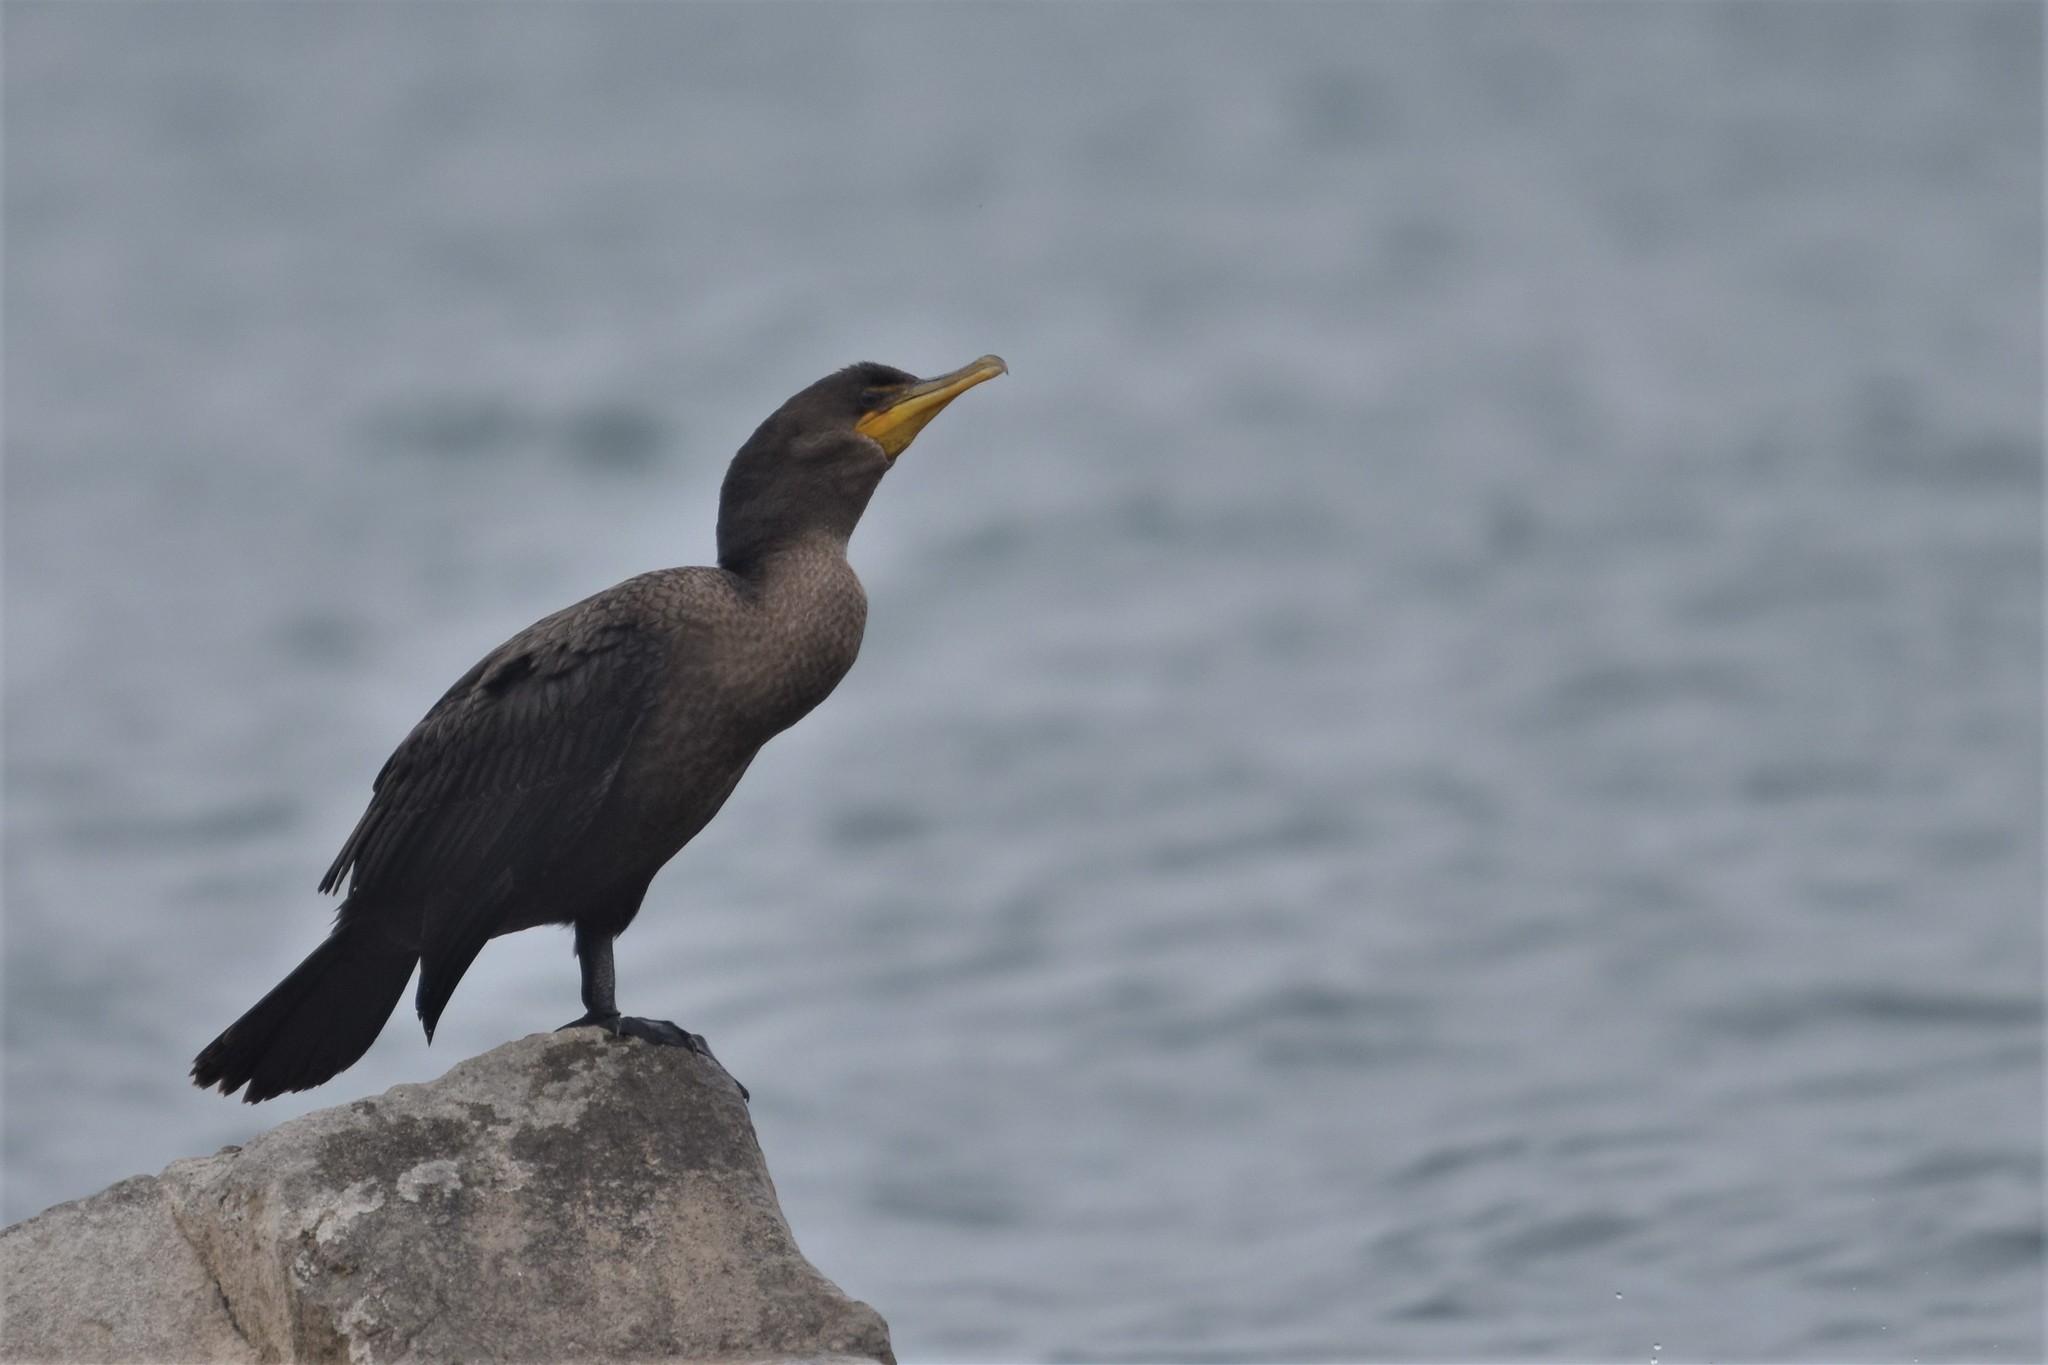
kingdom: Animalia
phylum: Chordata
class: Aves
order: Suliformes
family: Phalacrocoracidae
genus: Phalacrocorax
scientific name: Phalacrocorax auritus
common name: Double-crested cormorant
